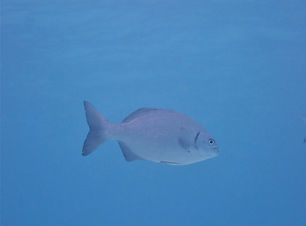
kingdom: Animalia
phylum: Chordata
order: Perciformes
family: Kyphosidae
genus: Kyphosus
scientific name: Kyphosus sectatrix
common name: Bermuda chub
